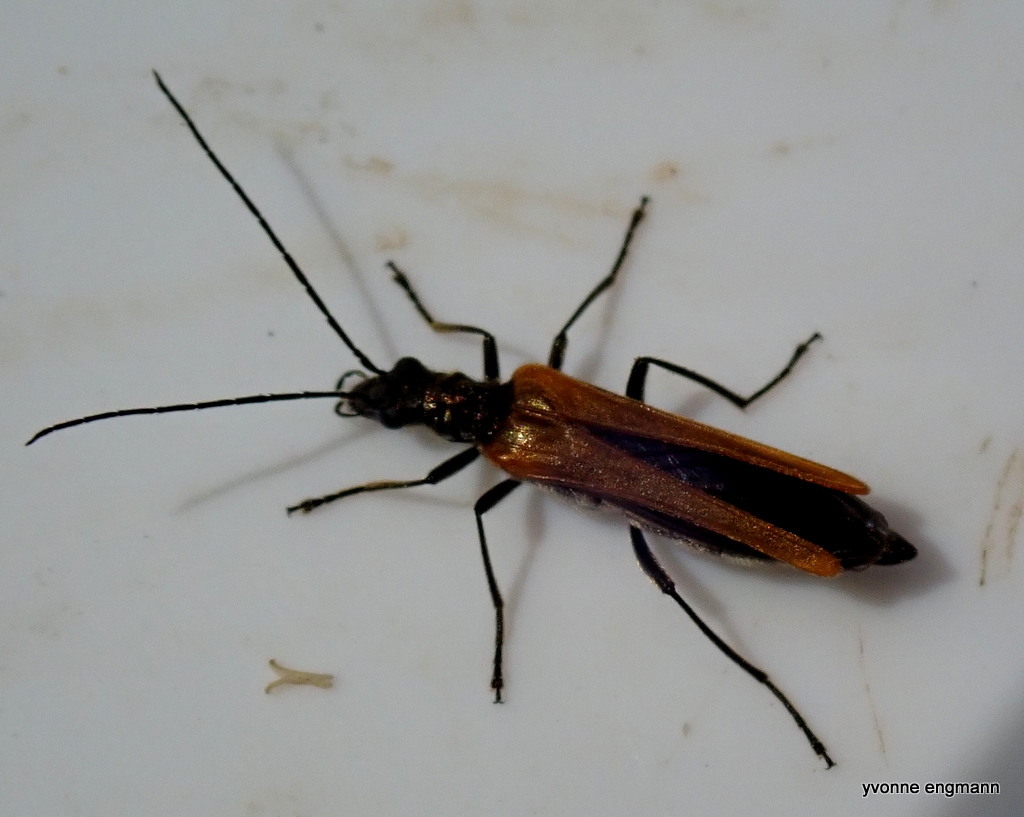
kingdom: Animalia
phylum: Arthropoda
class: Insecta
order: Coleoptera
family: Oedemeridae
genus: Oedemera
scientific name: Oedemera femorata
